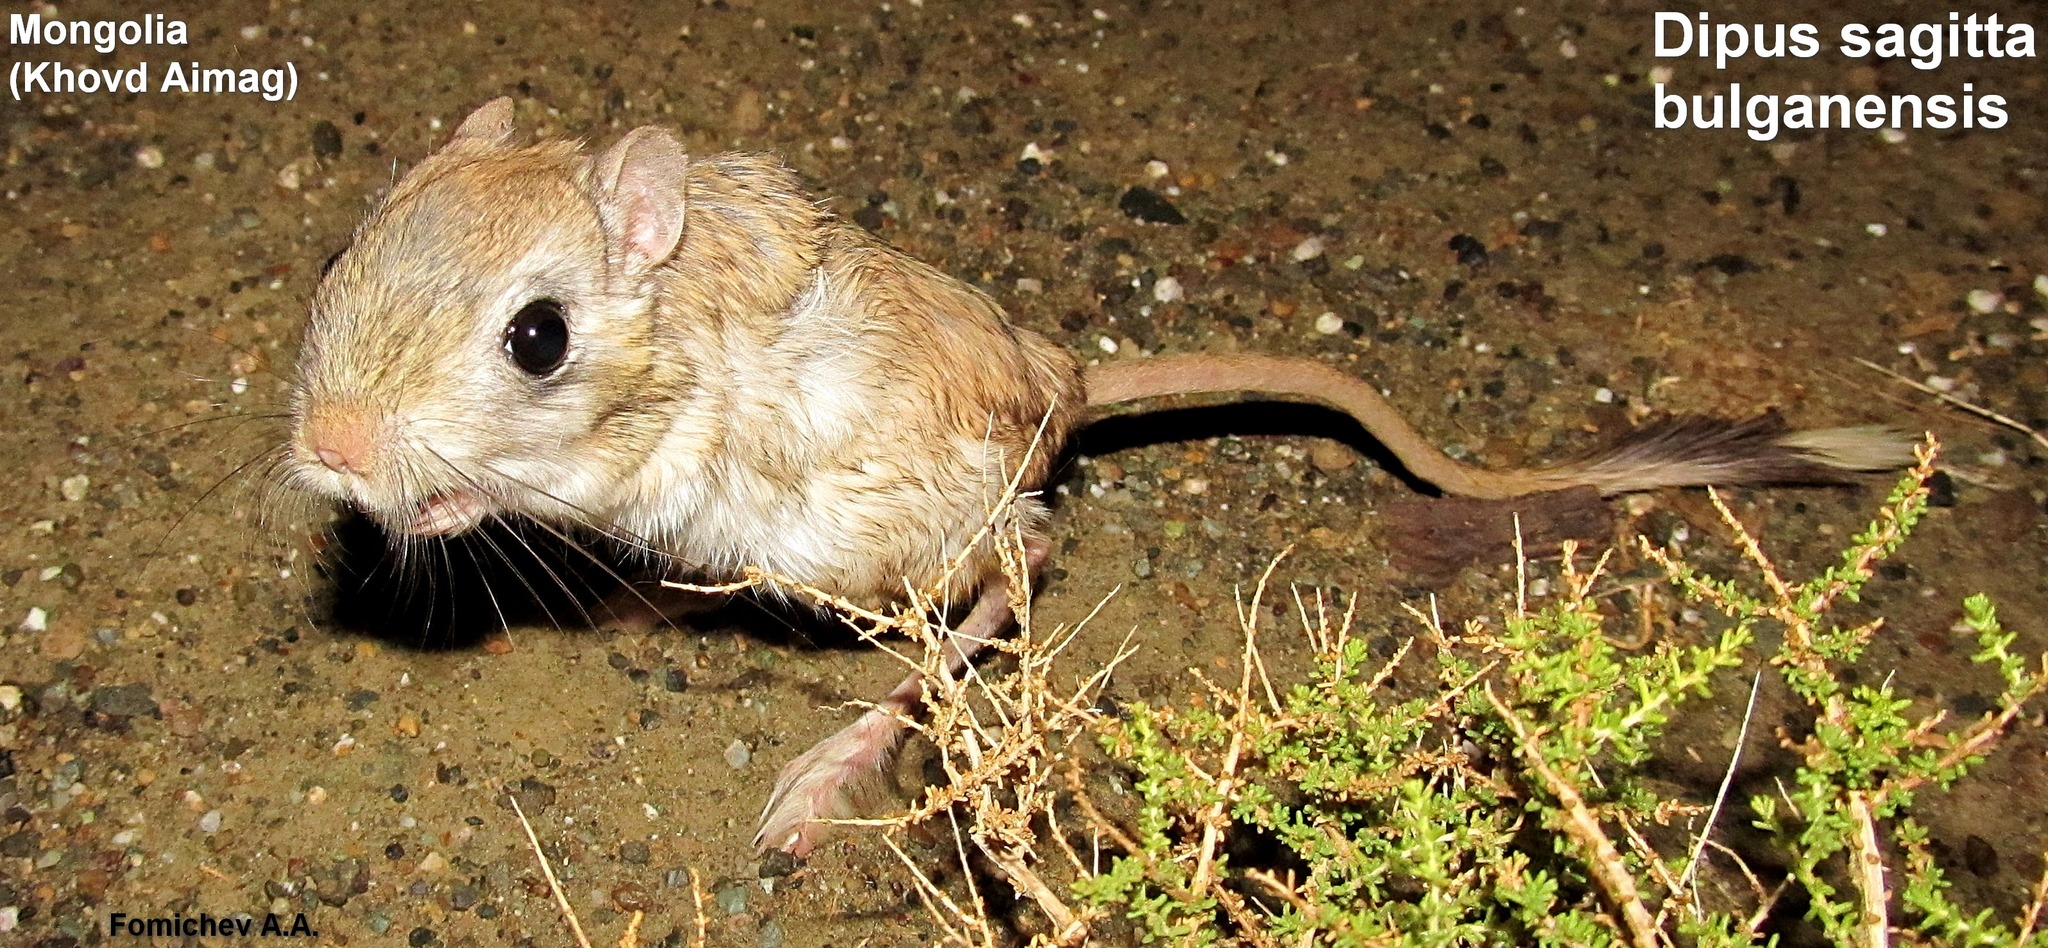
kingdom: Animalia
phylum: Chordata
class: Mammalia
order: Rodentia
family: Dipodidae
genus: Dipus
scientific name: Dipus sagitta
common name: Northern three-toed jerboa
